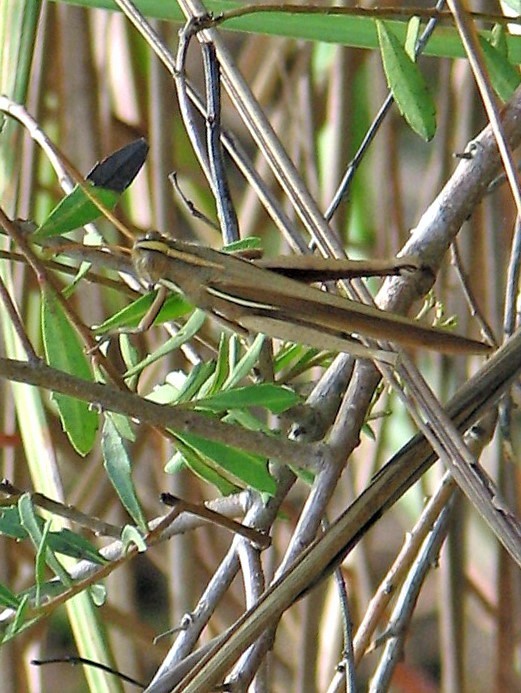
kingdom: Animalia
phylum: Arthropoda
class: Insecta
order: Orthoptera
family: Acrididae
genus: Schistocerca
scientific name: Schistocerca flavofasciata
